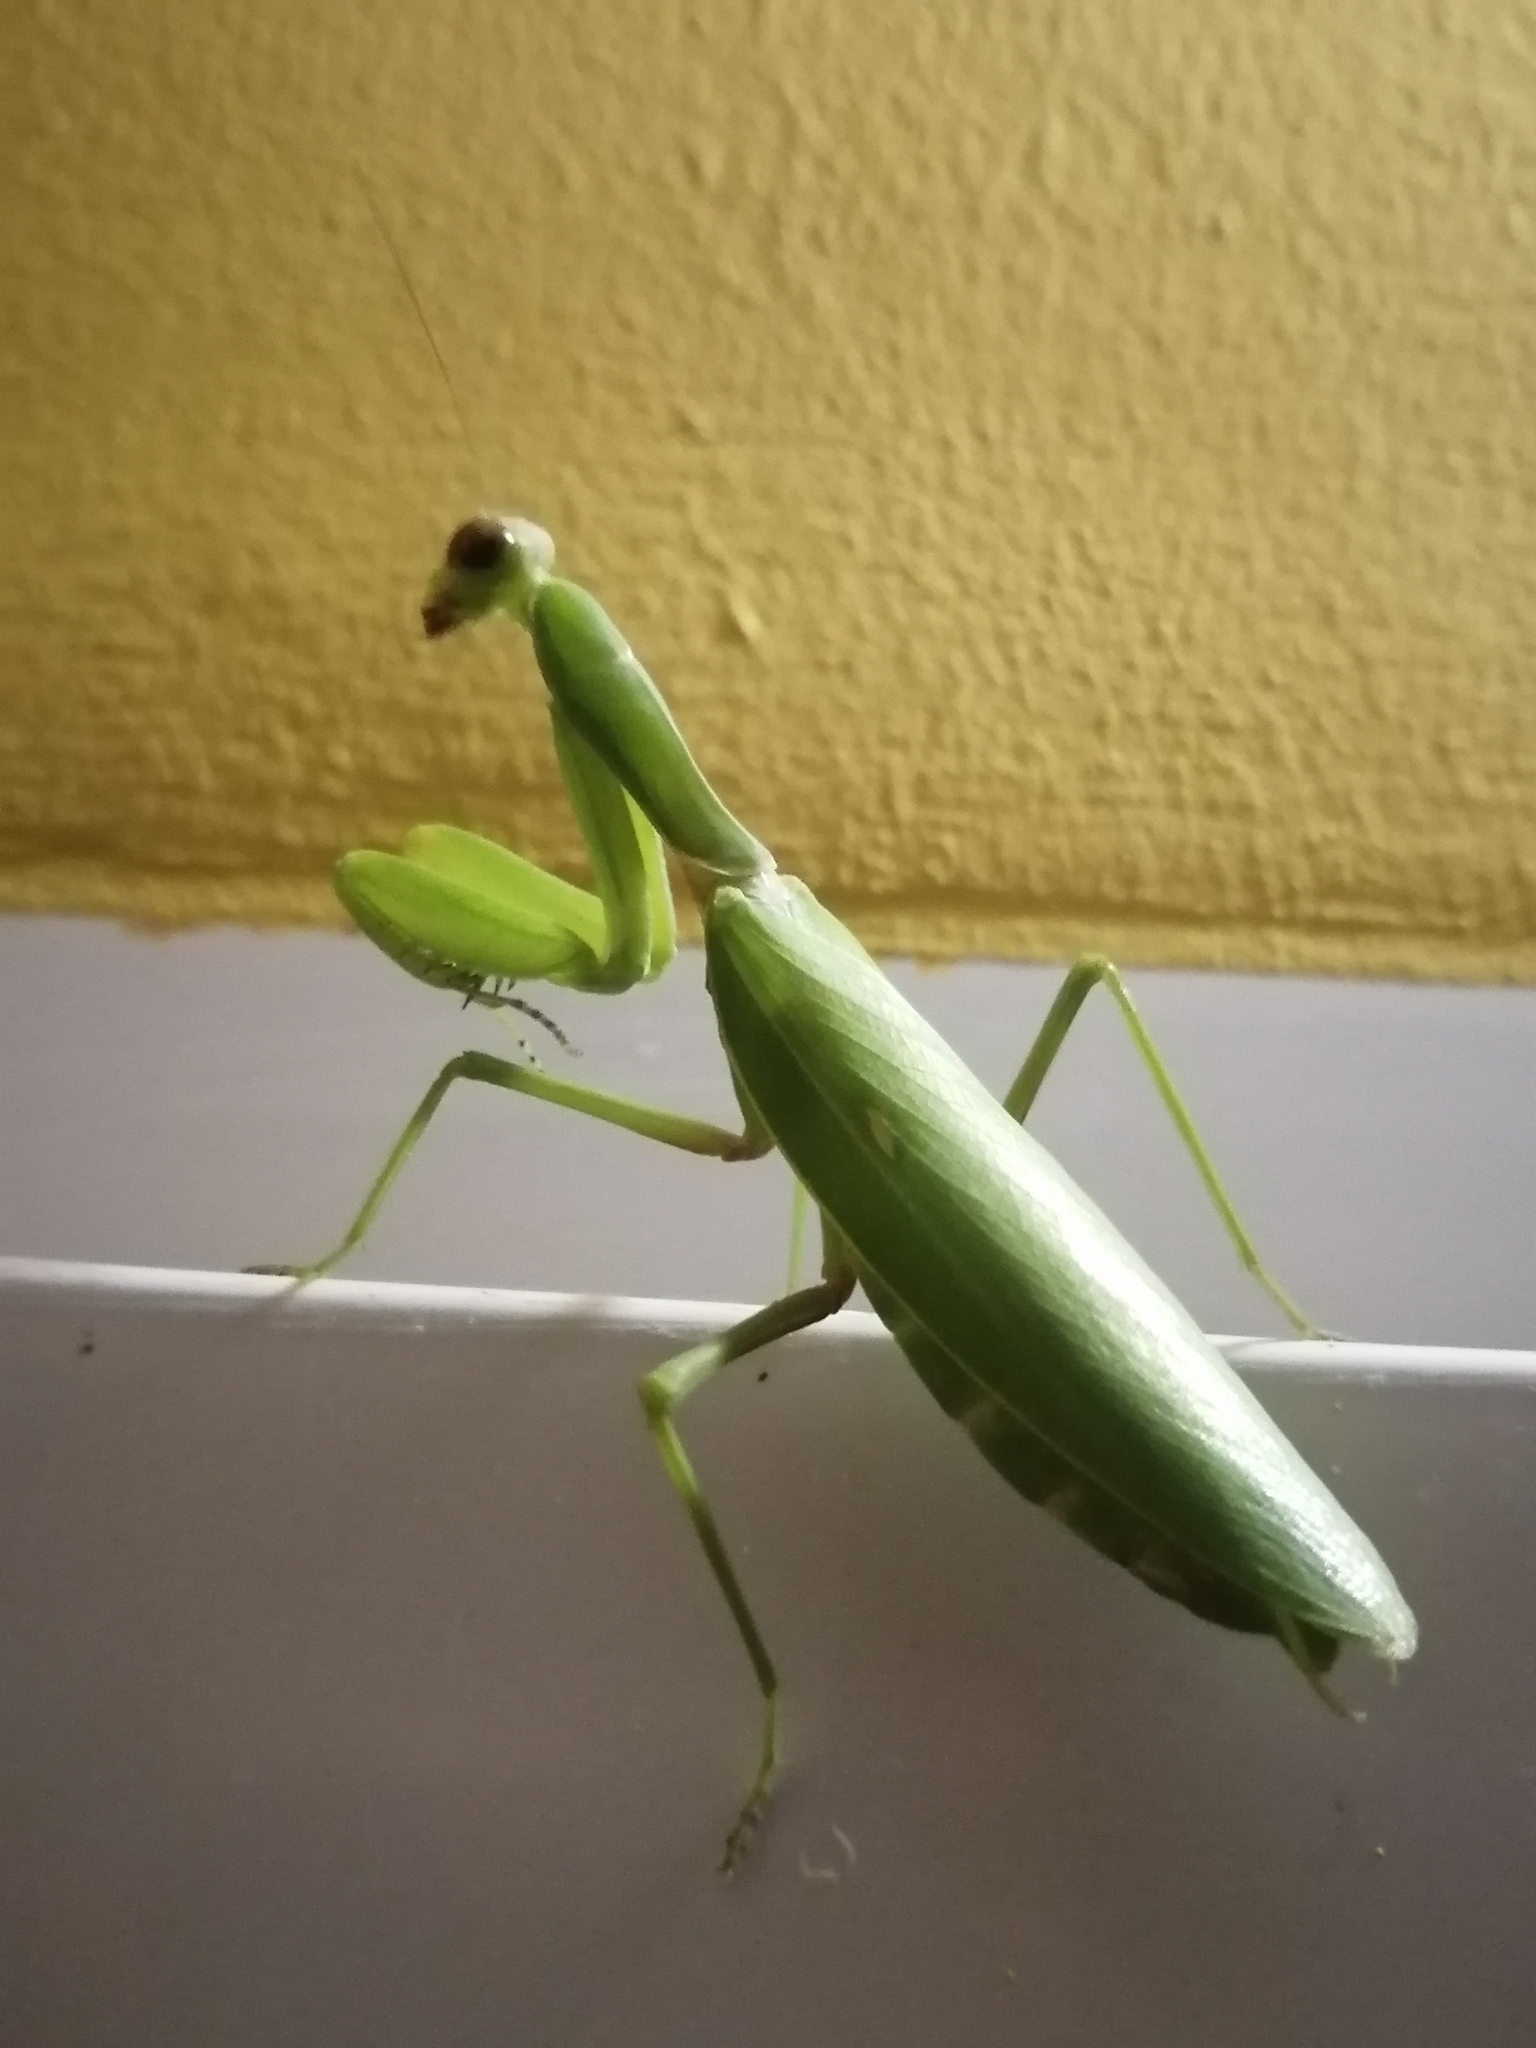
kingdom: Animalia
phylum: Arthropoda
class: Insecta
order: Mantodea
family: Mantidae
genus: Hierodula
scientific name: Hierodula transcaucasica
